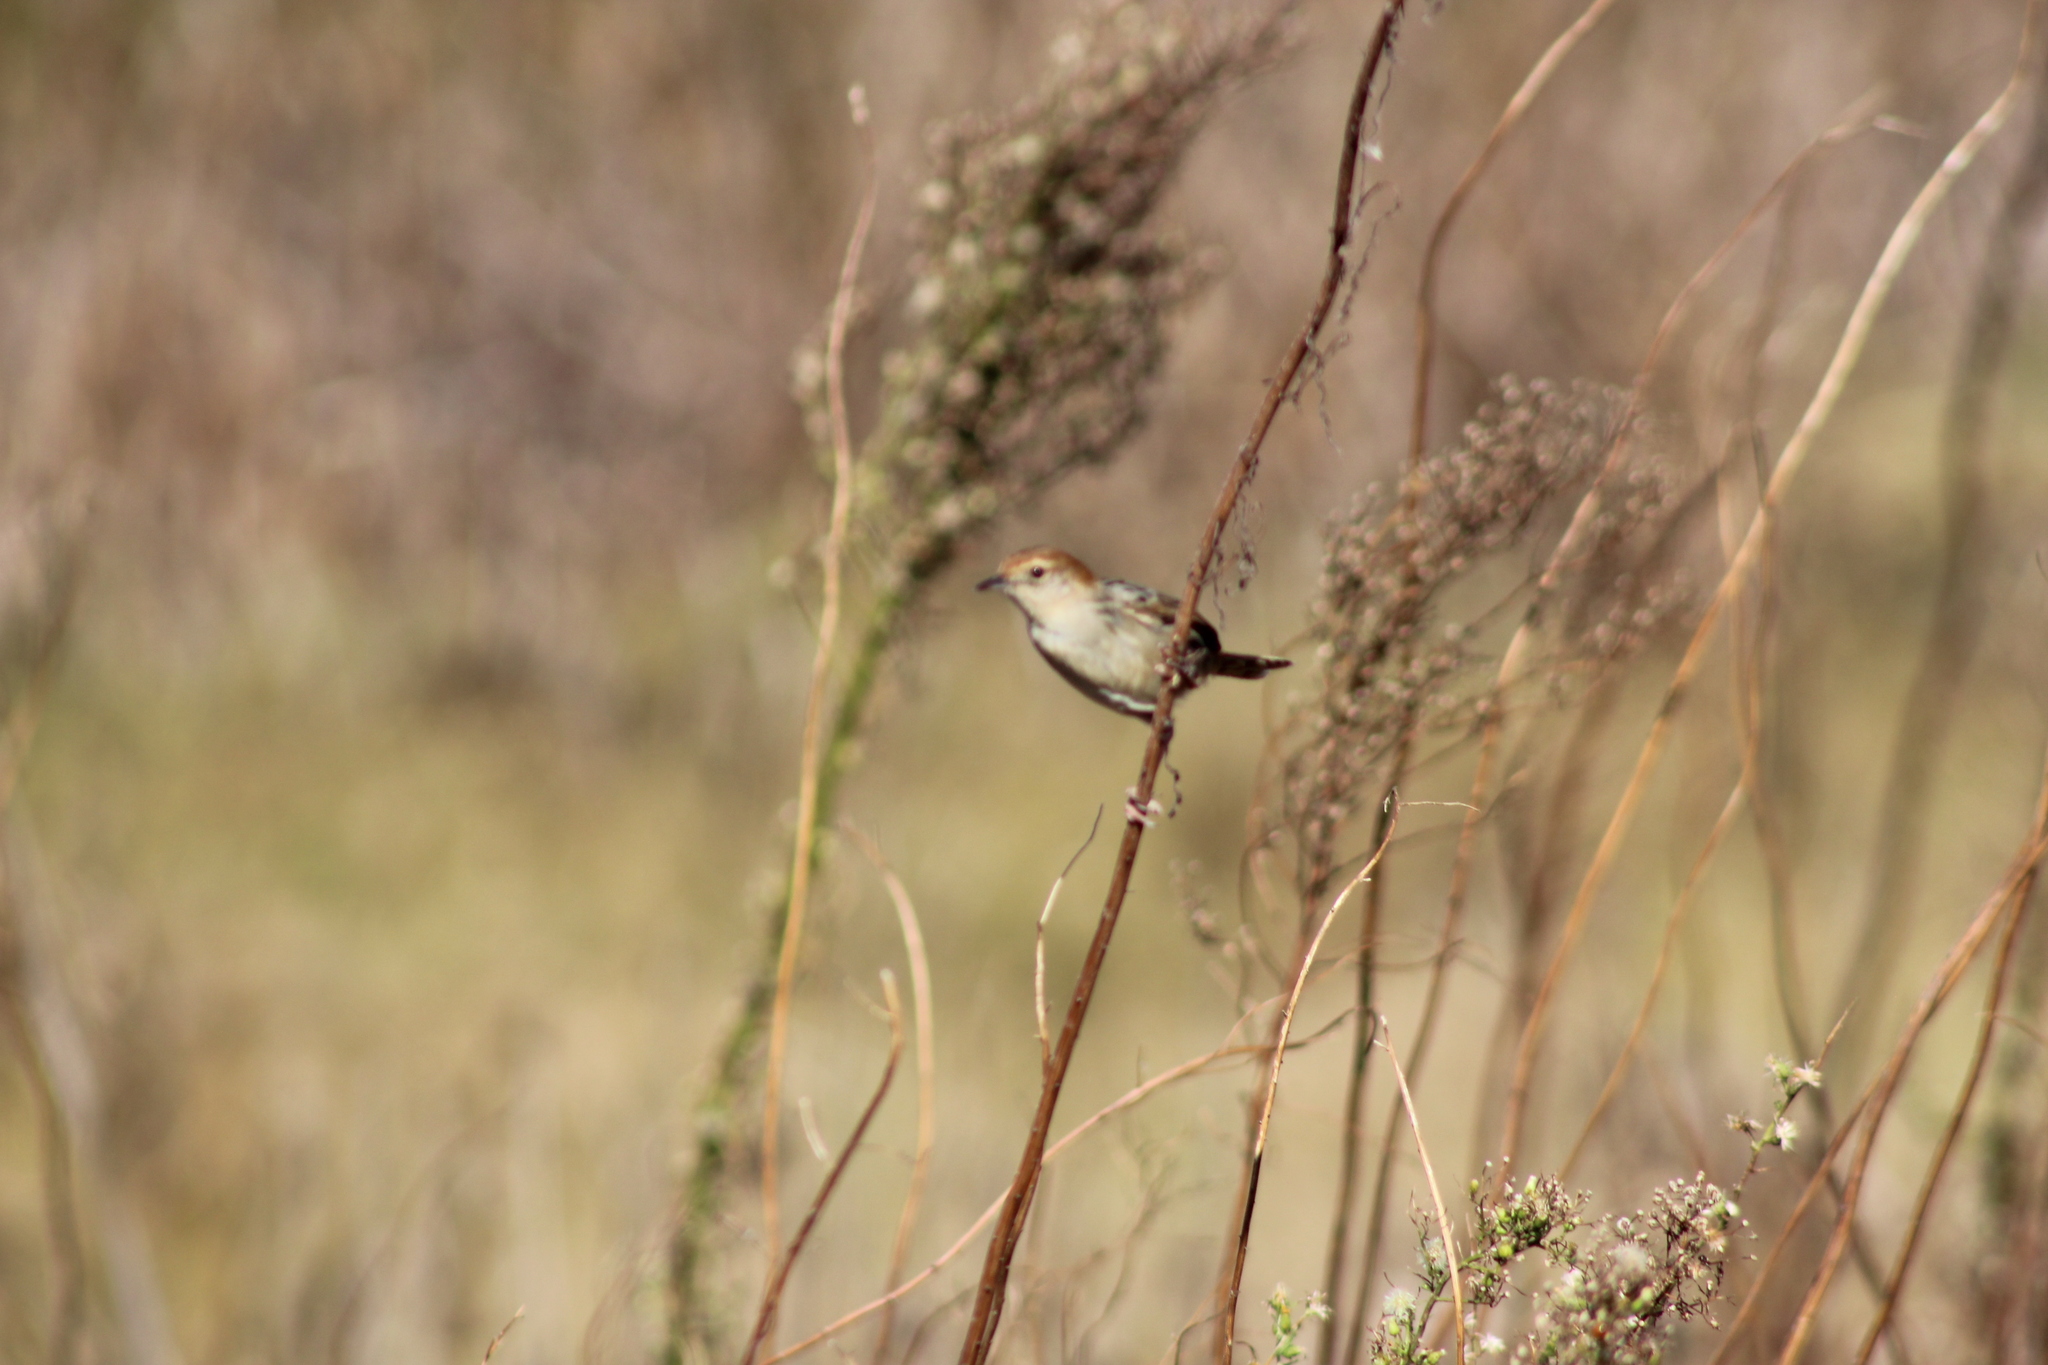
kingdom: Animalia
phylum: Chordata
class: Aves
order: Passeriformes
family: Cisticolidae
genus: Cisticola
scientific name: Cisticola tinniens
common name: Levaillant's cisticola
